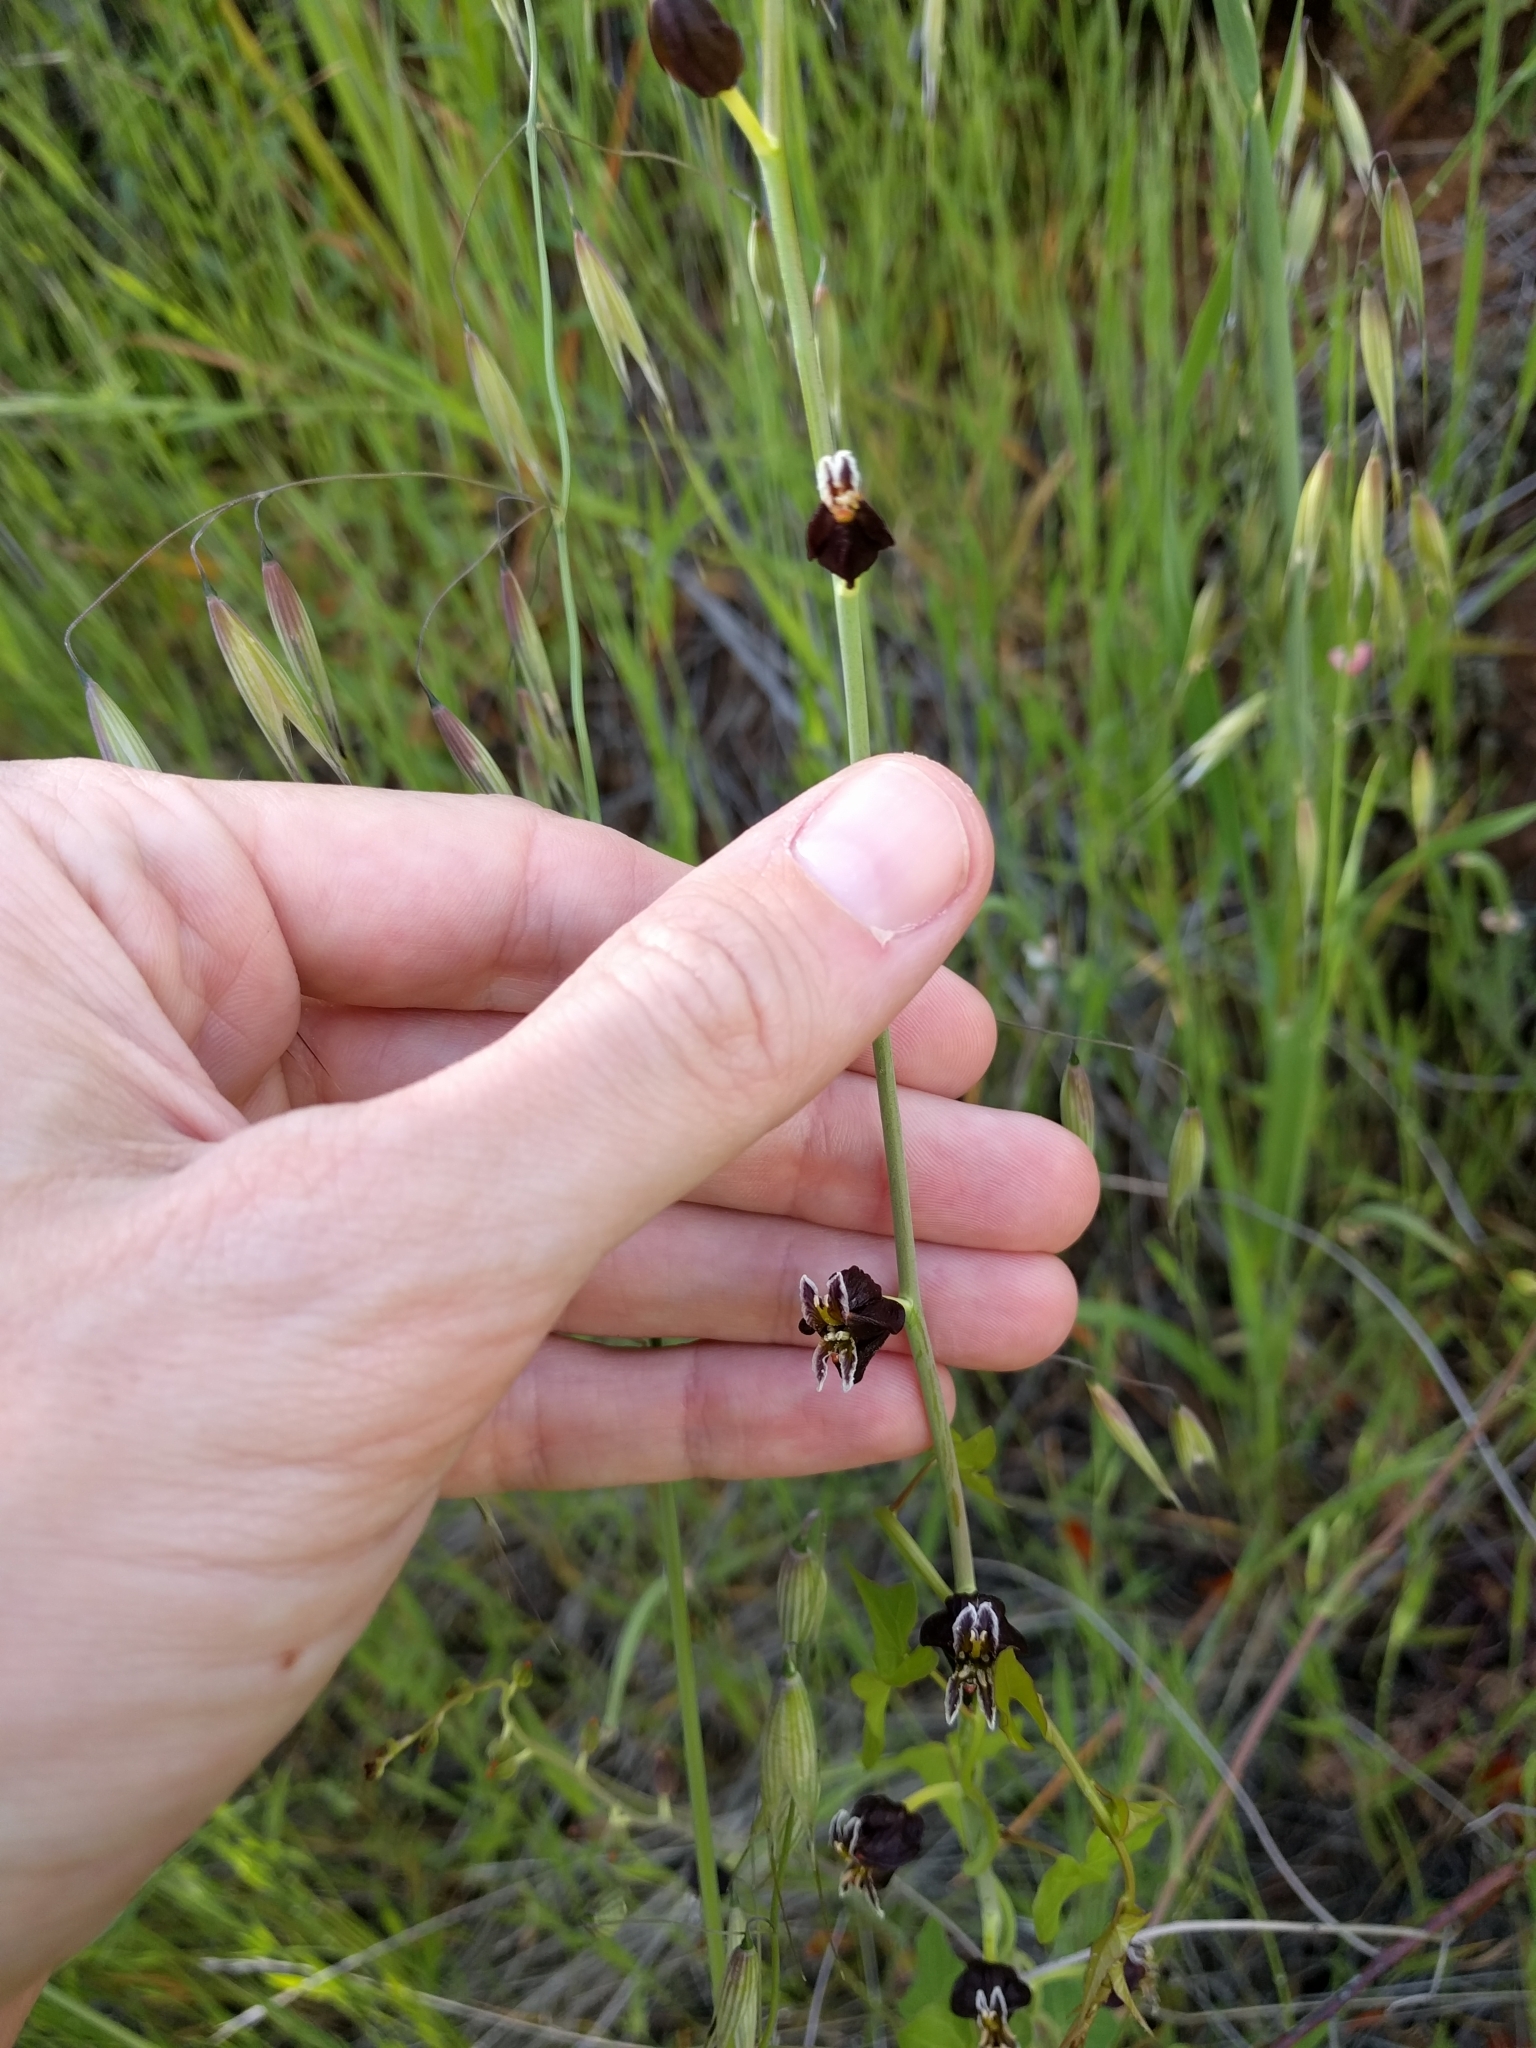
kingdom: Plantae
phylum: Tracheophyta
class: Magnoliopsida
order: Brassicales
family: Brassicaceae
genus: Streptanthus
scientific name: Streptanthus glandulosus
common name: Jewel-flower
